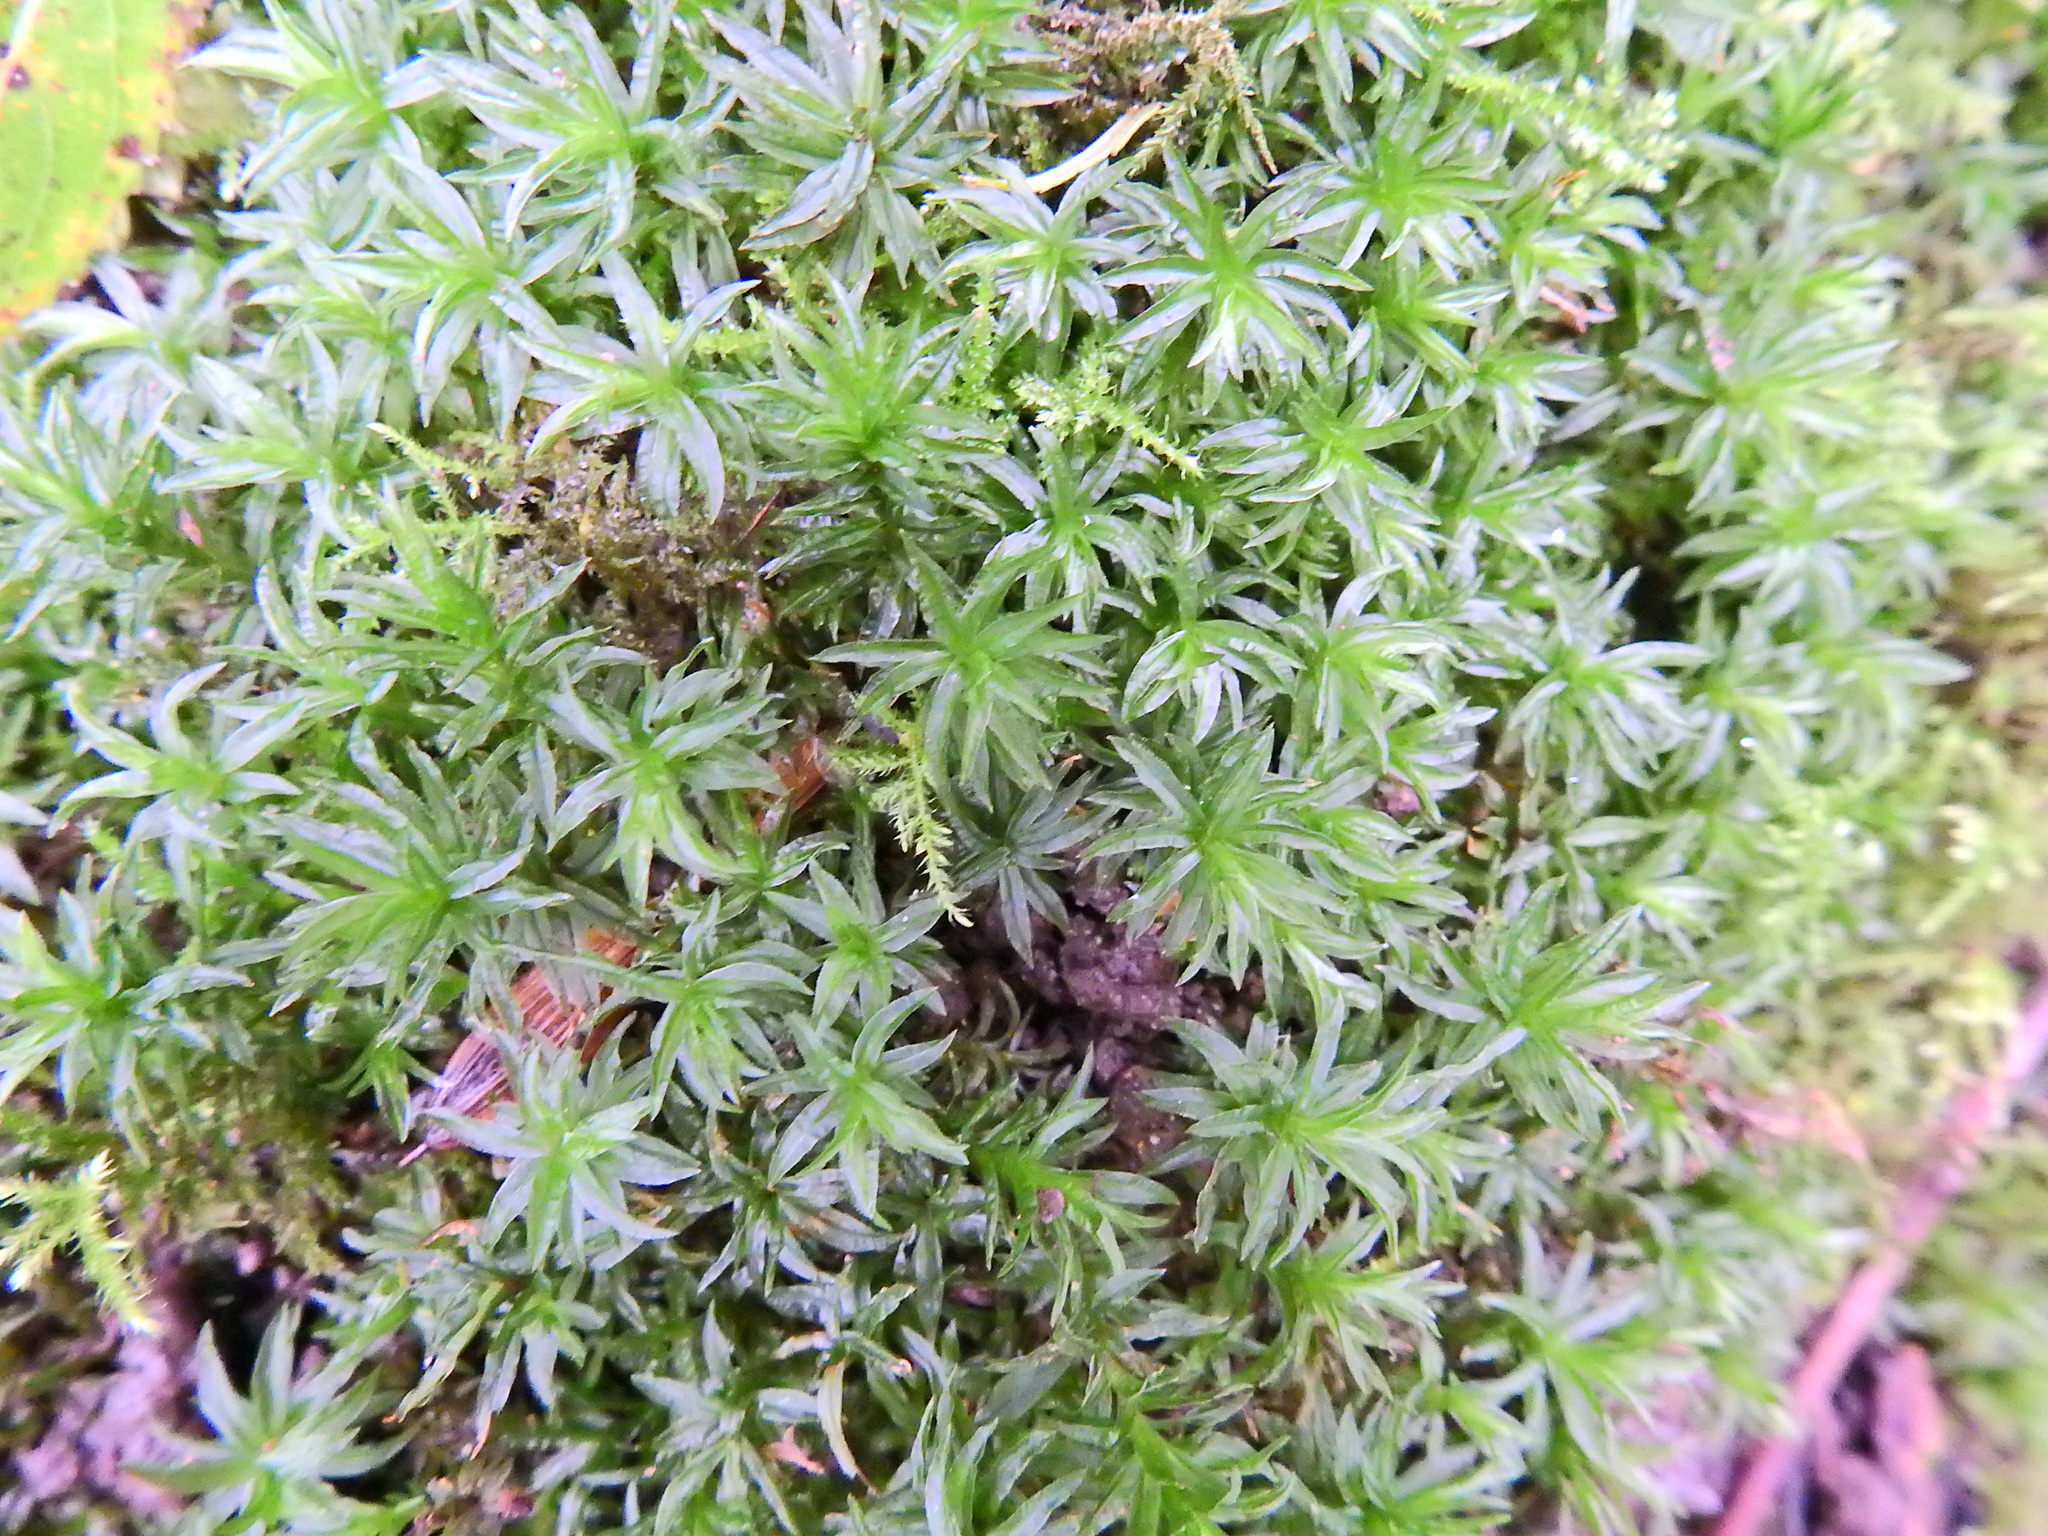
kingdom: Plantae
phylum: Bryophyta
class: Polytrichopsida
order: Polytrichales
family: Polytrichaceae
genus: Atrichum
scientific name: Atrichum undulatum
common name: Common smoothcap
